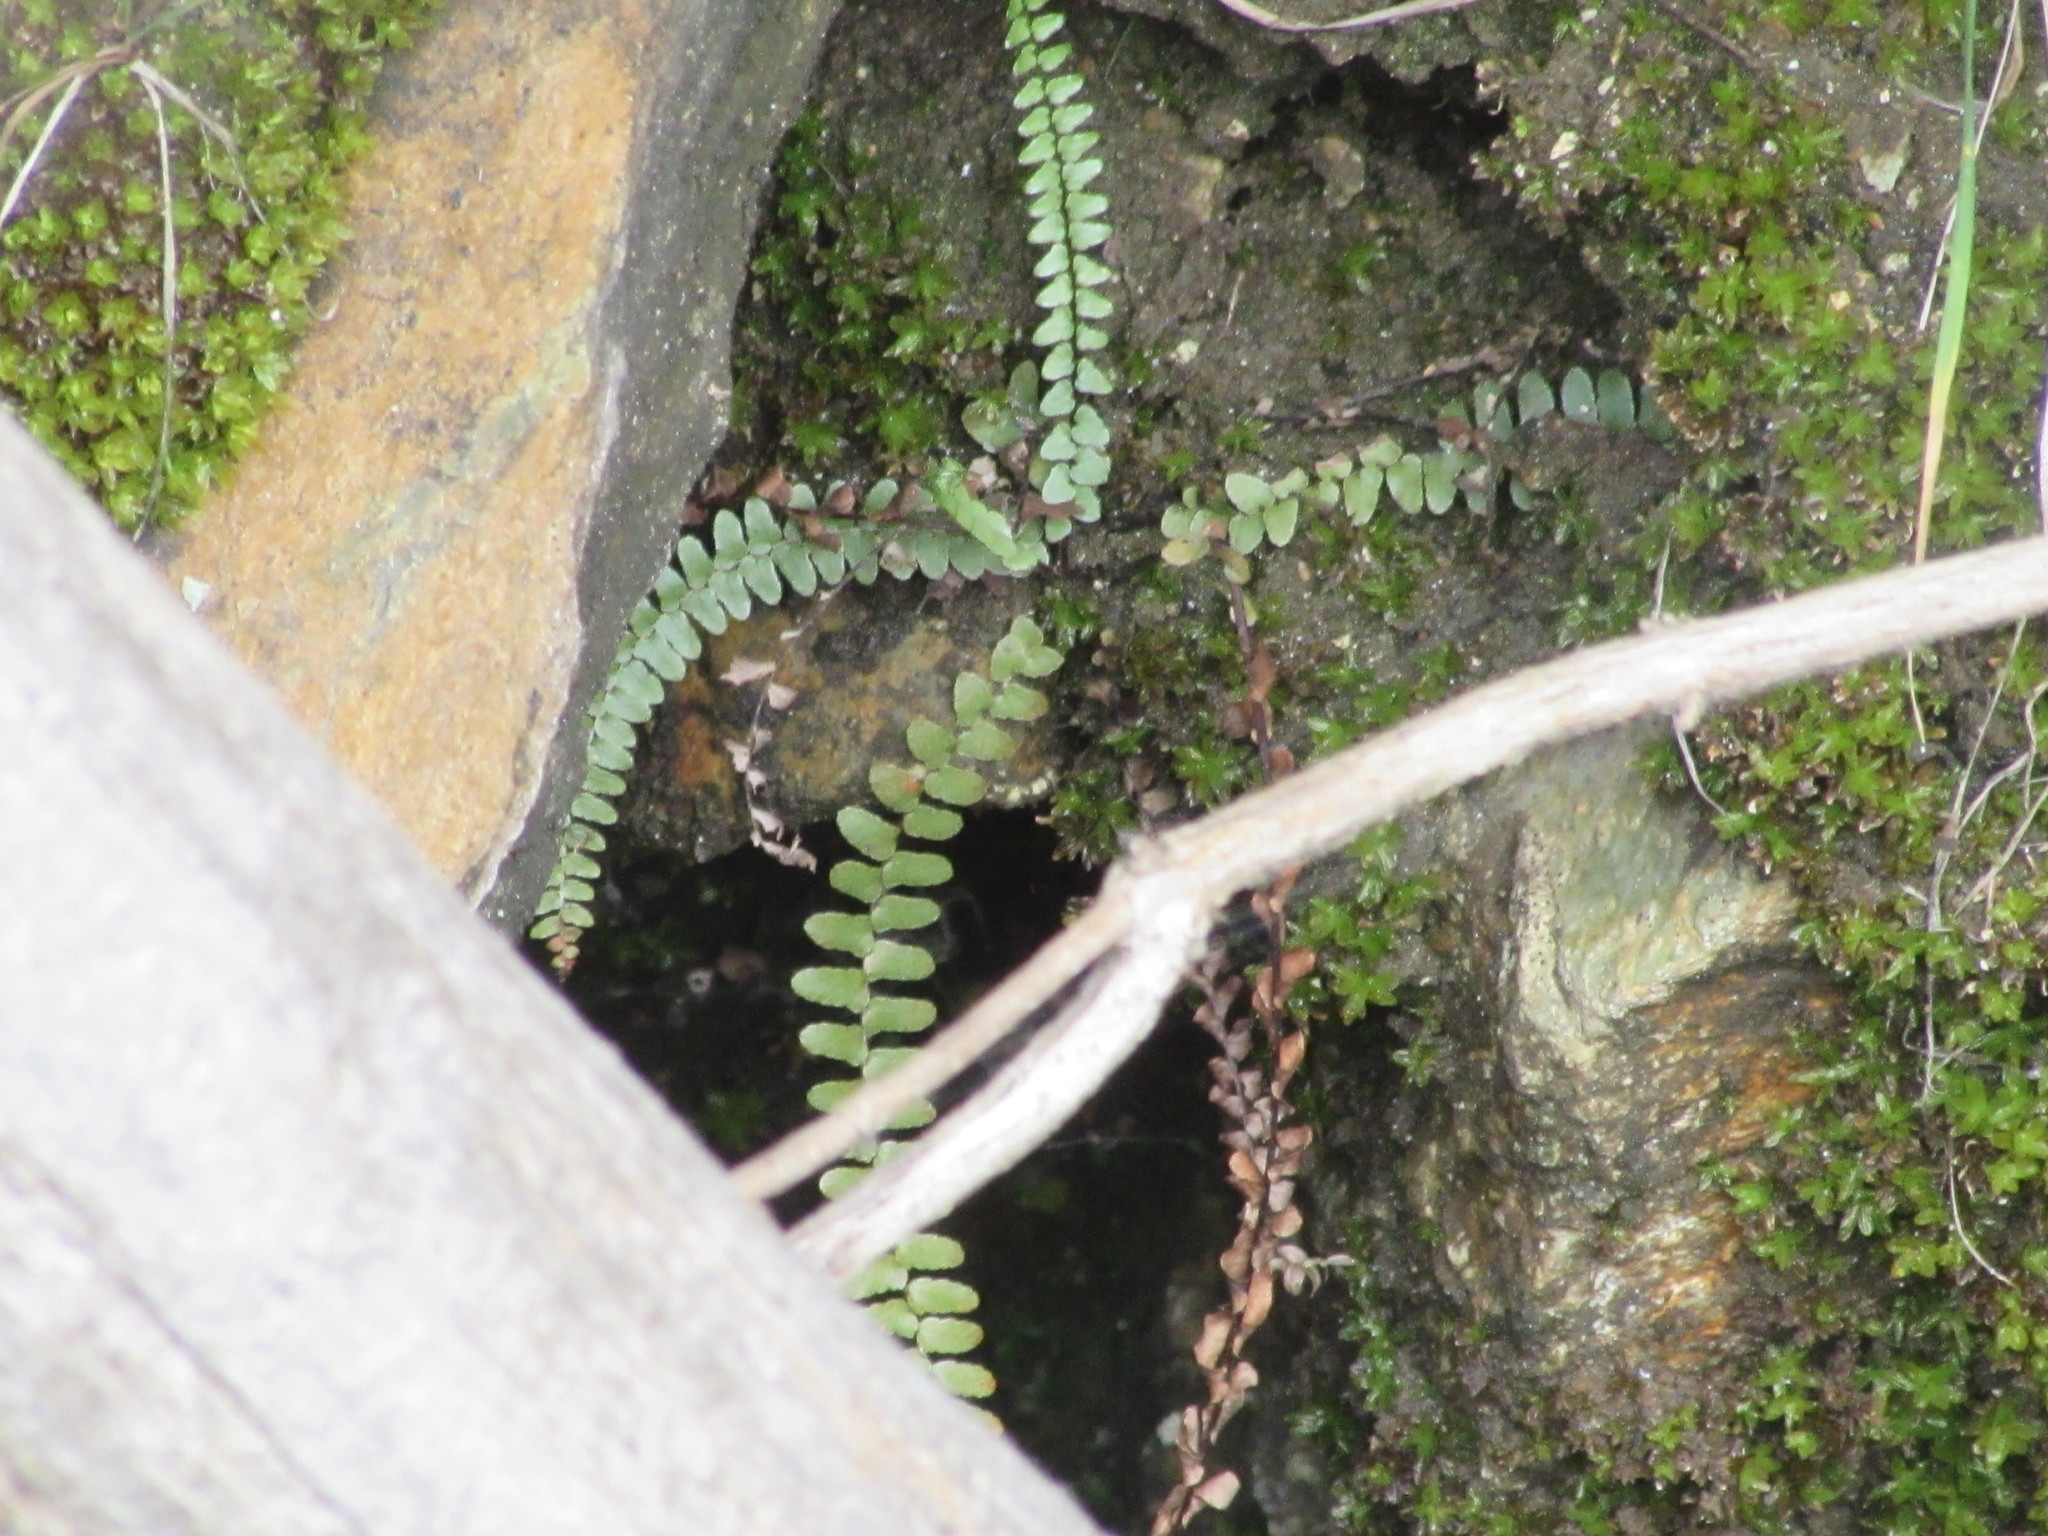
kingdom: Plantae
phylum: Tracheophyta
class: Polypodiopsida
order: Polypodiales
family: Aspleniaceae
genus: Asplenium
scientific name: Asplenium platyneuron
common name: Ebony spleenwort
